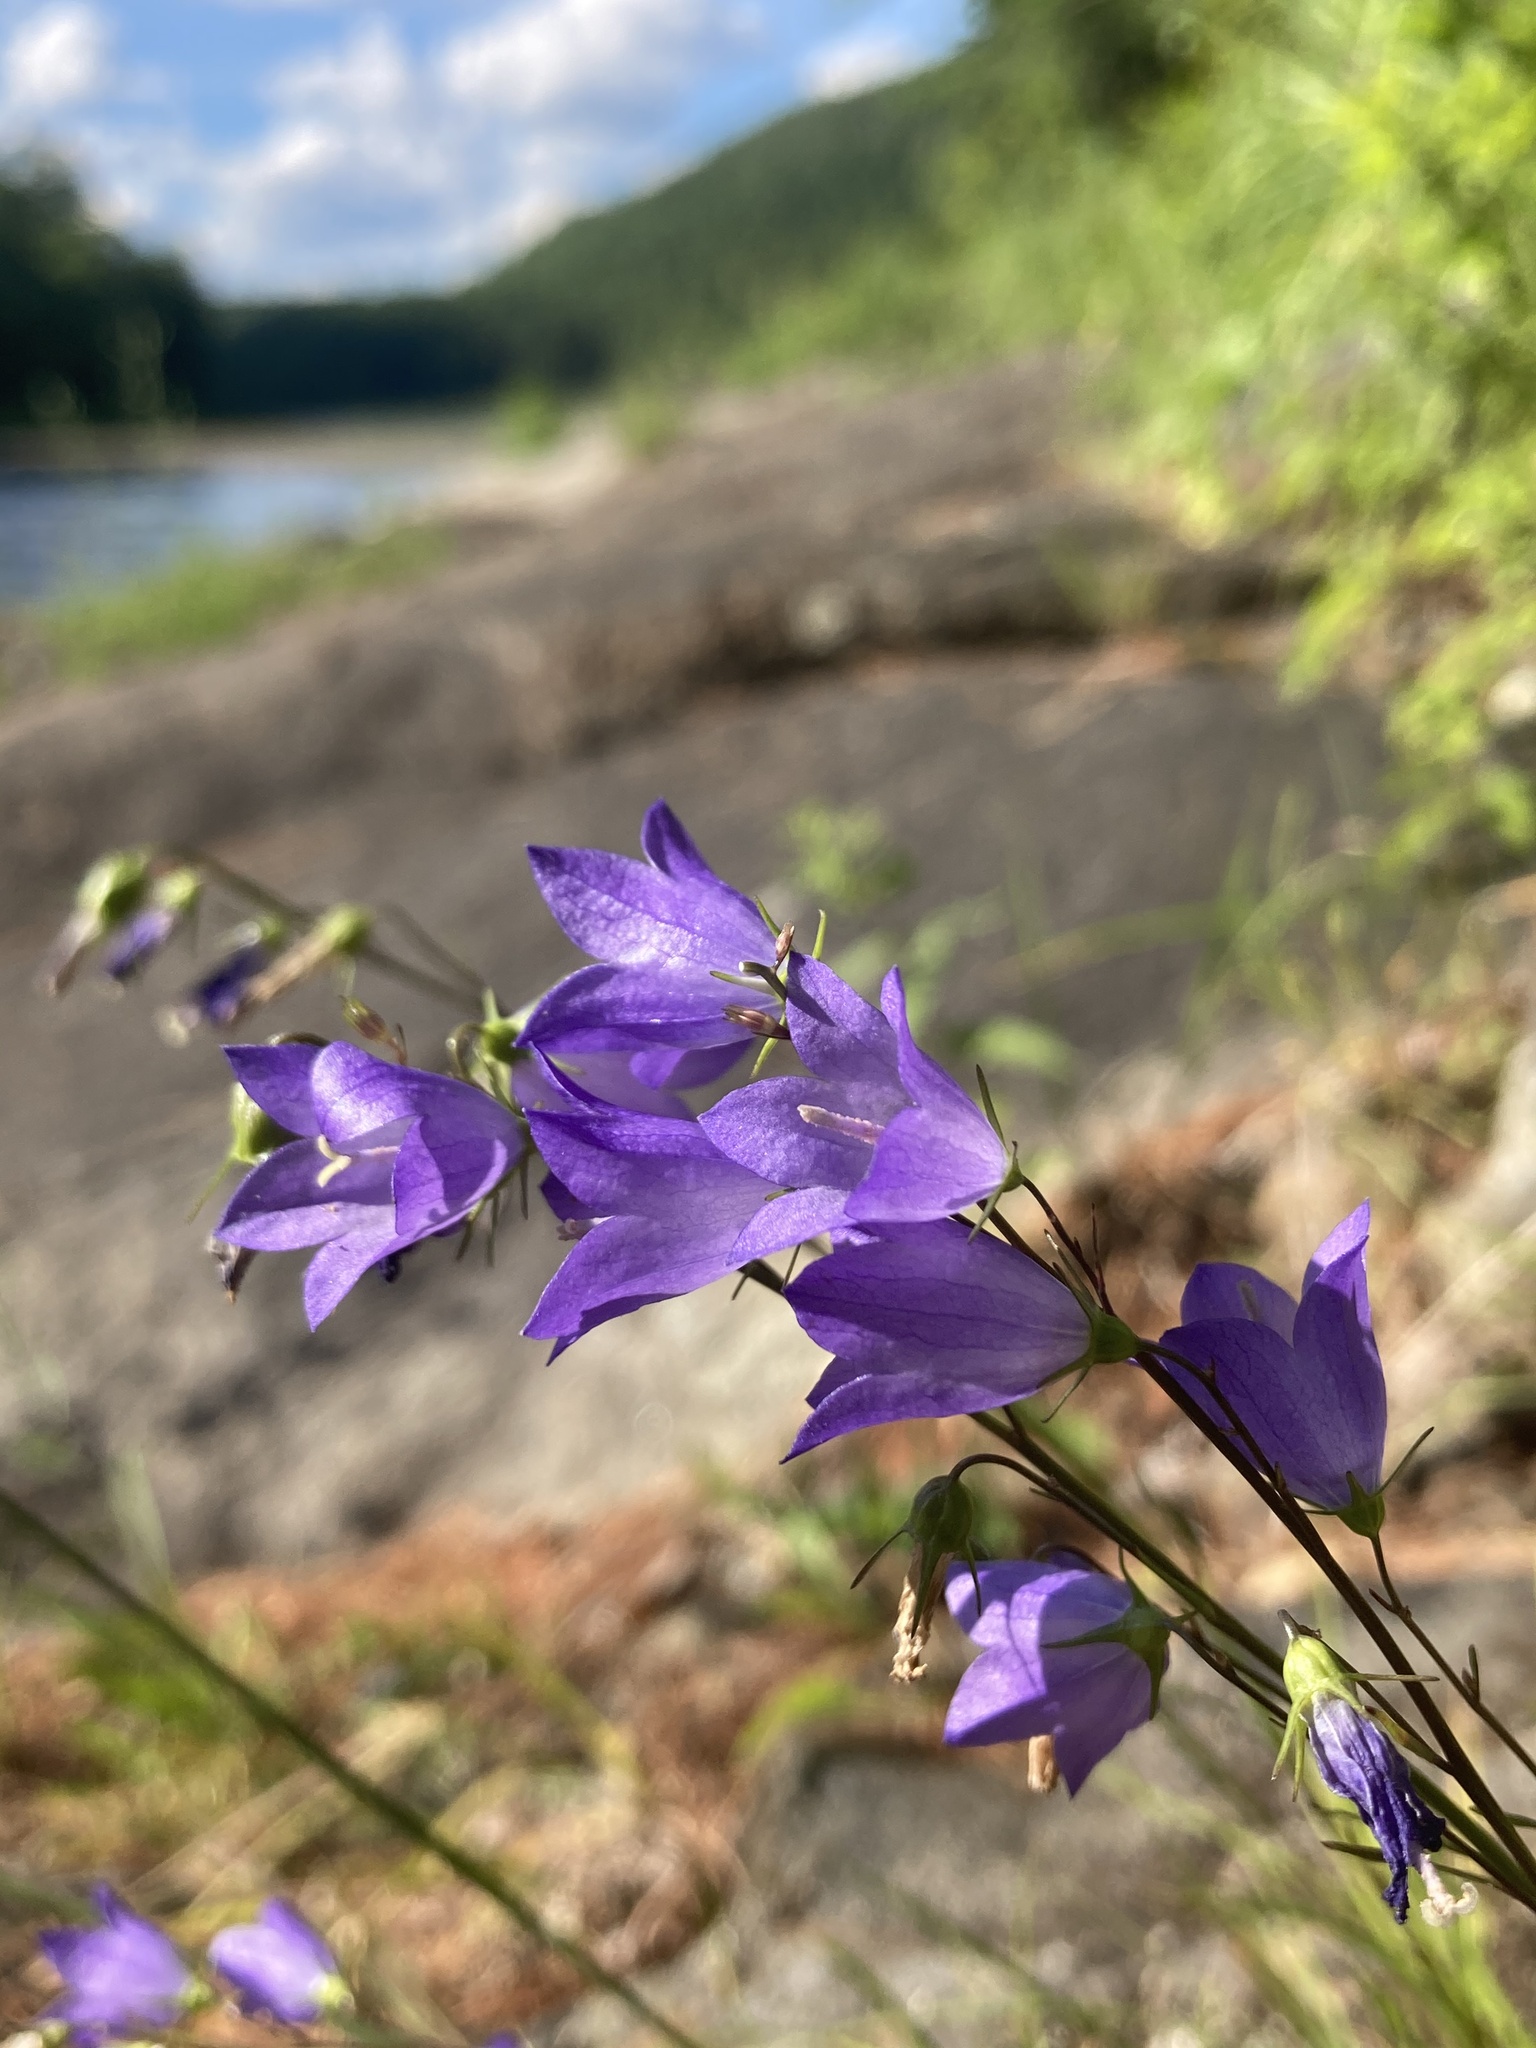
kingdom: Plantae
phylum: Tracheophyta
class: Magnoliopsida
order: Asterales
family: Campanulaceae
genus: Campanula
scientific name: Campanula intercedens
